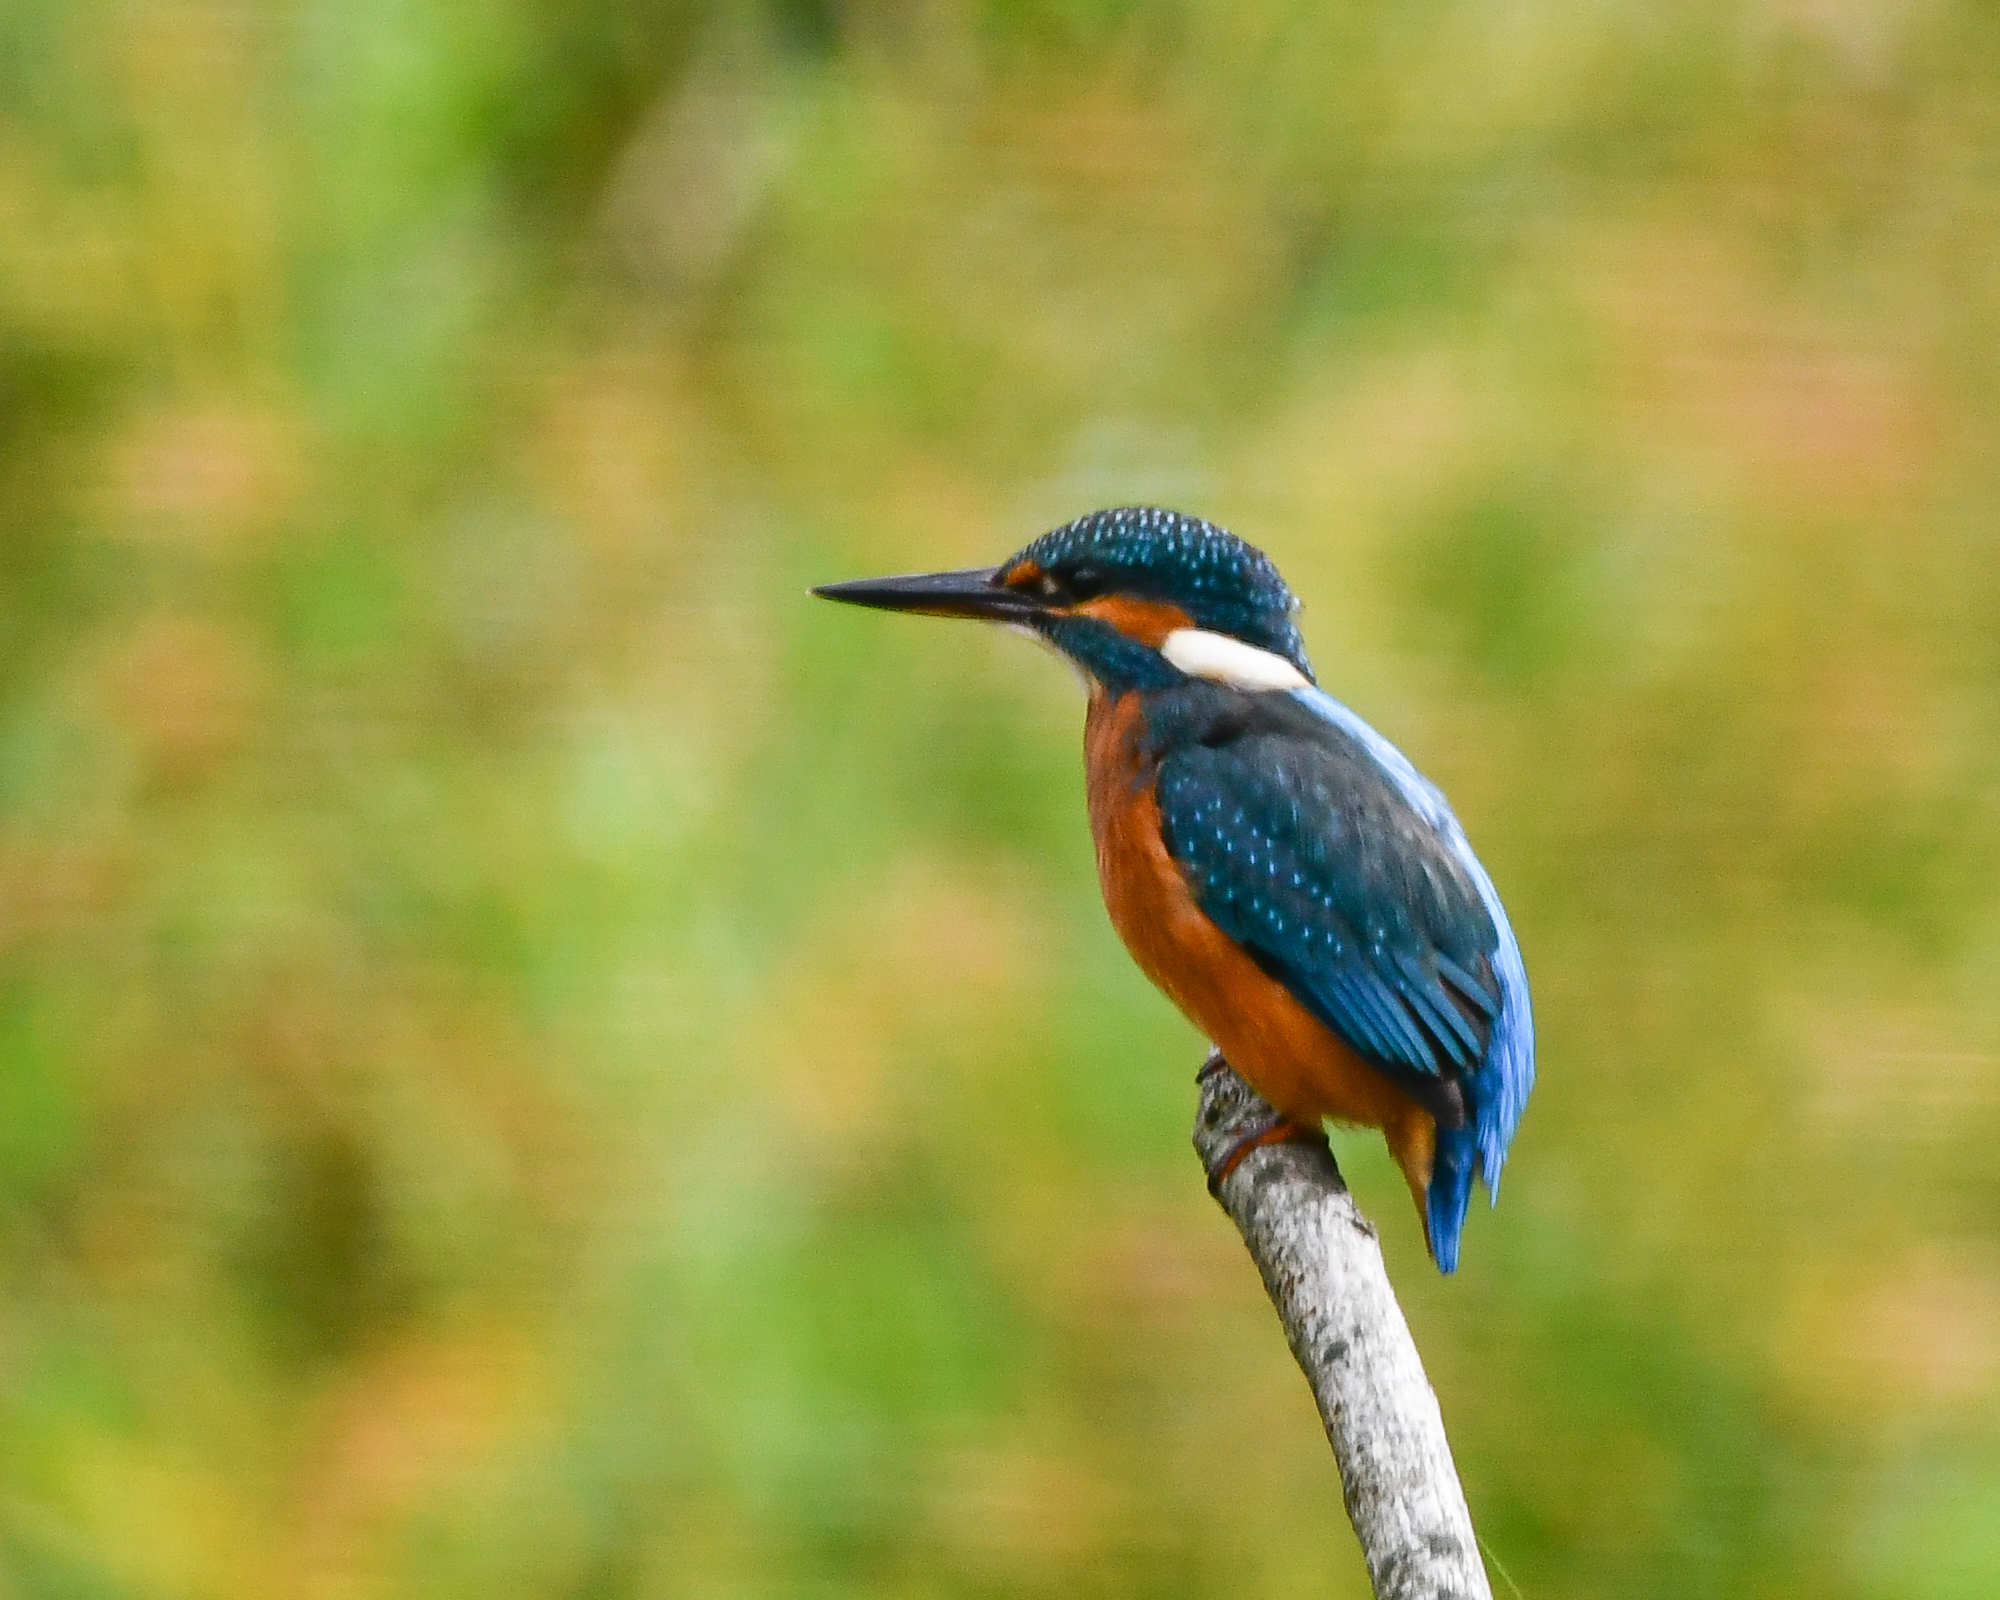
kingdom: Animalia
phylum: Chordata
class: Aves
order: Coraciiformes
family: Alcedinidae
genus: Alcedo
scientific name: Alcedo atthis
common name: Common kingfisher
